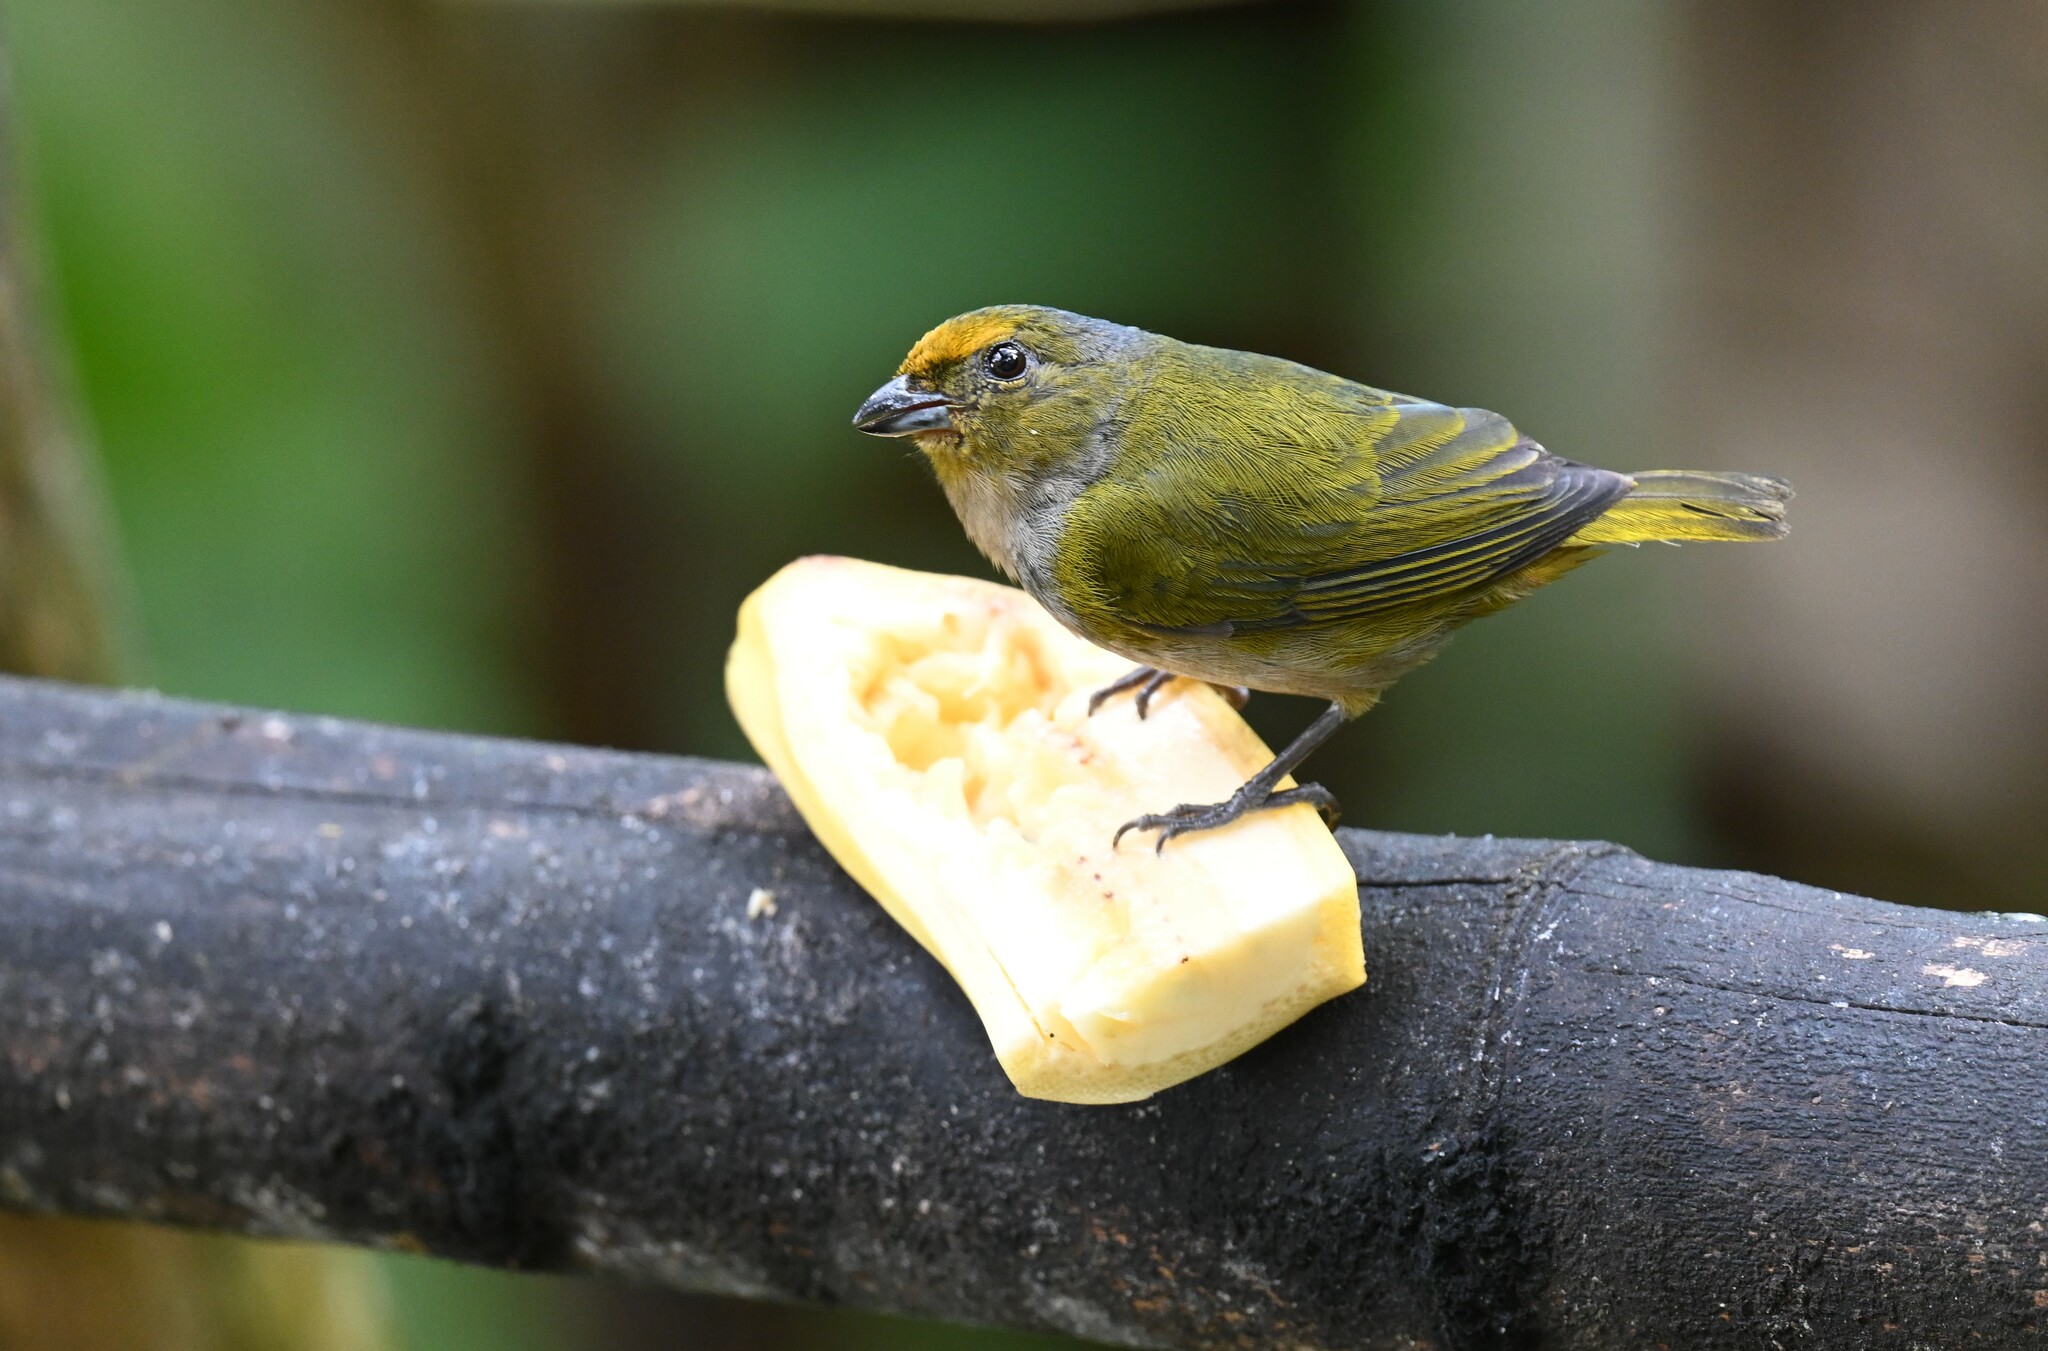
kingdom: Animalia
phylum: Chordata
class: Aves
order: Passeriformes
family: Fringillidae
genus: Euphonia
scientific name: Euphonia xanthogaster
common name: Orange-bellied euphonia
